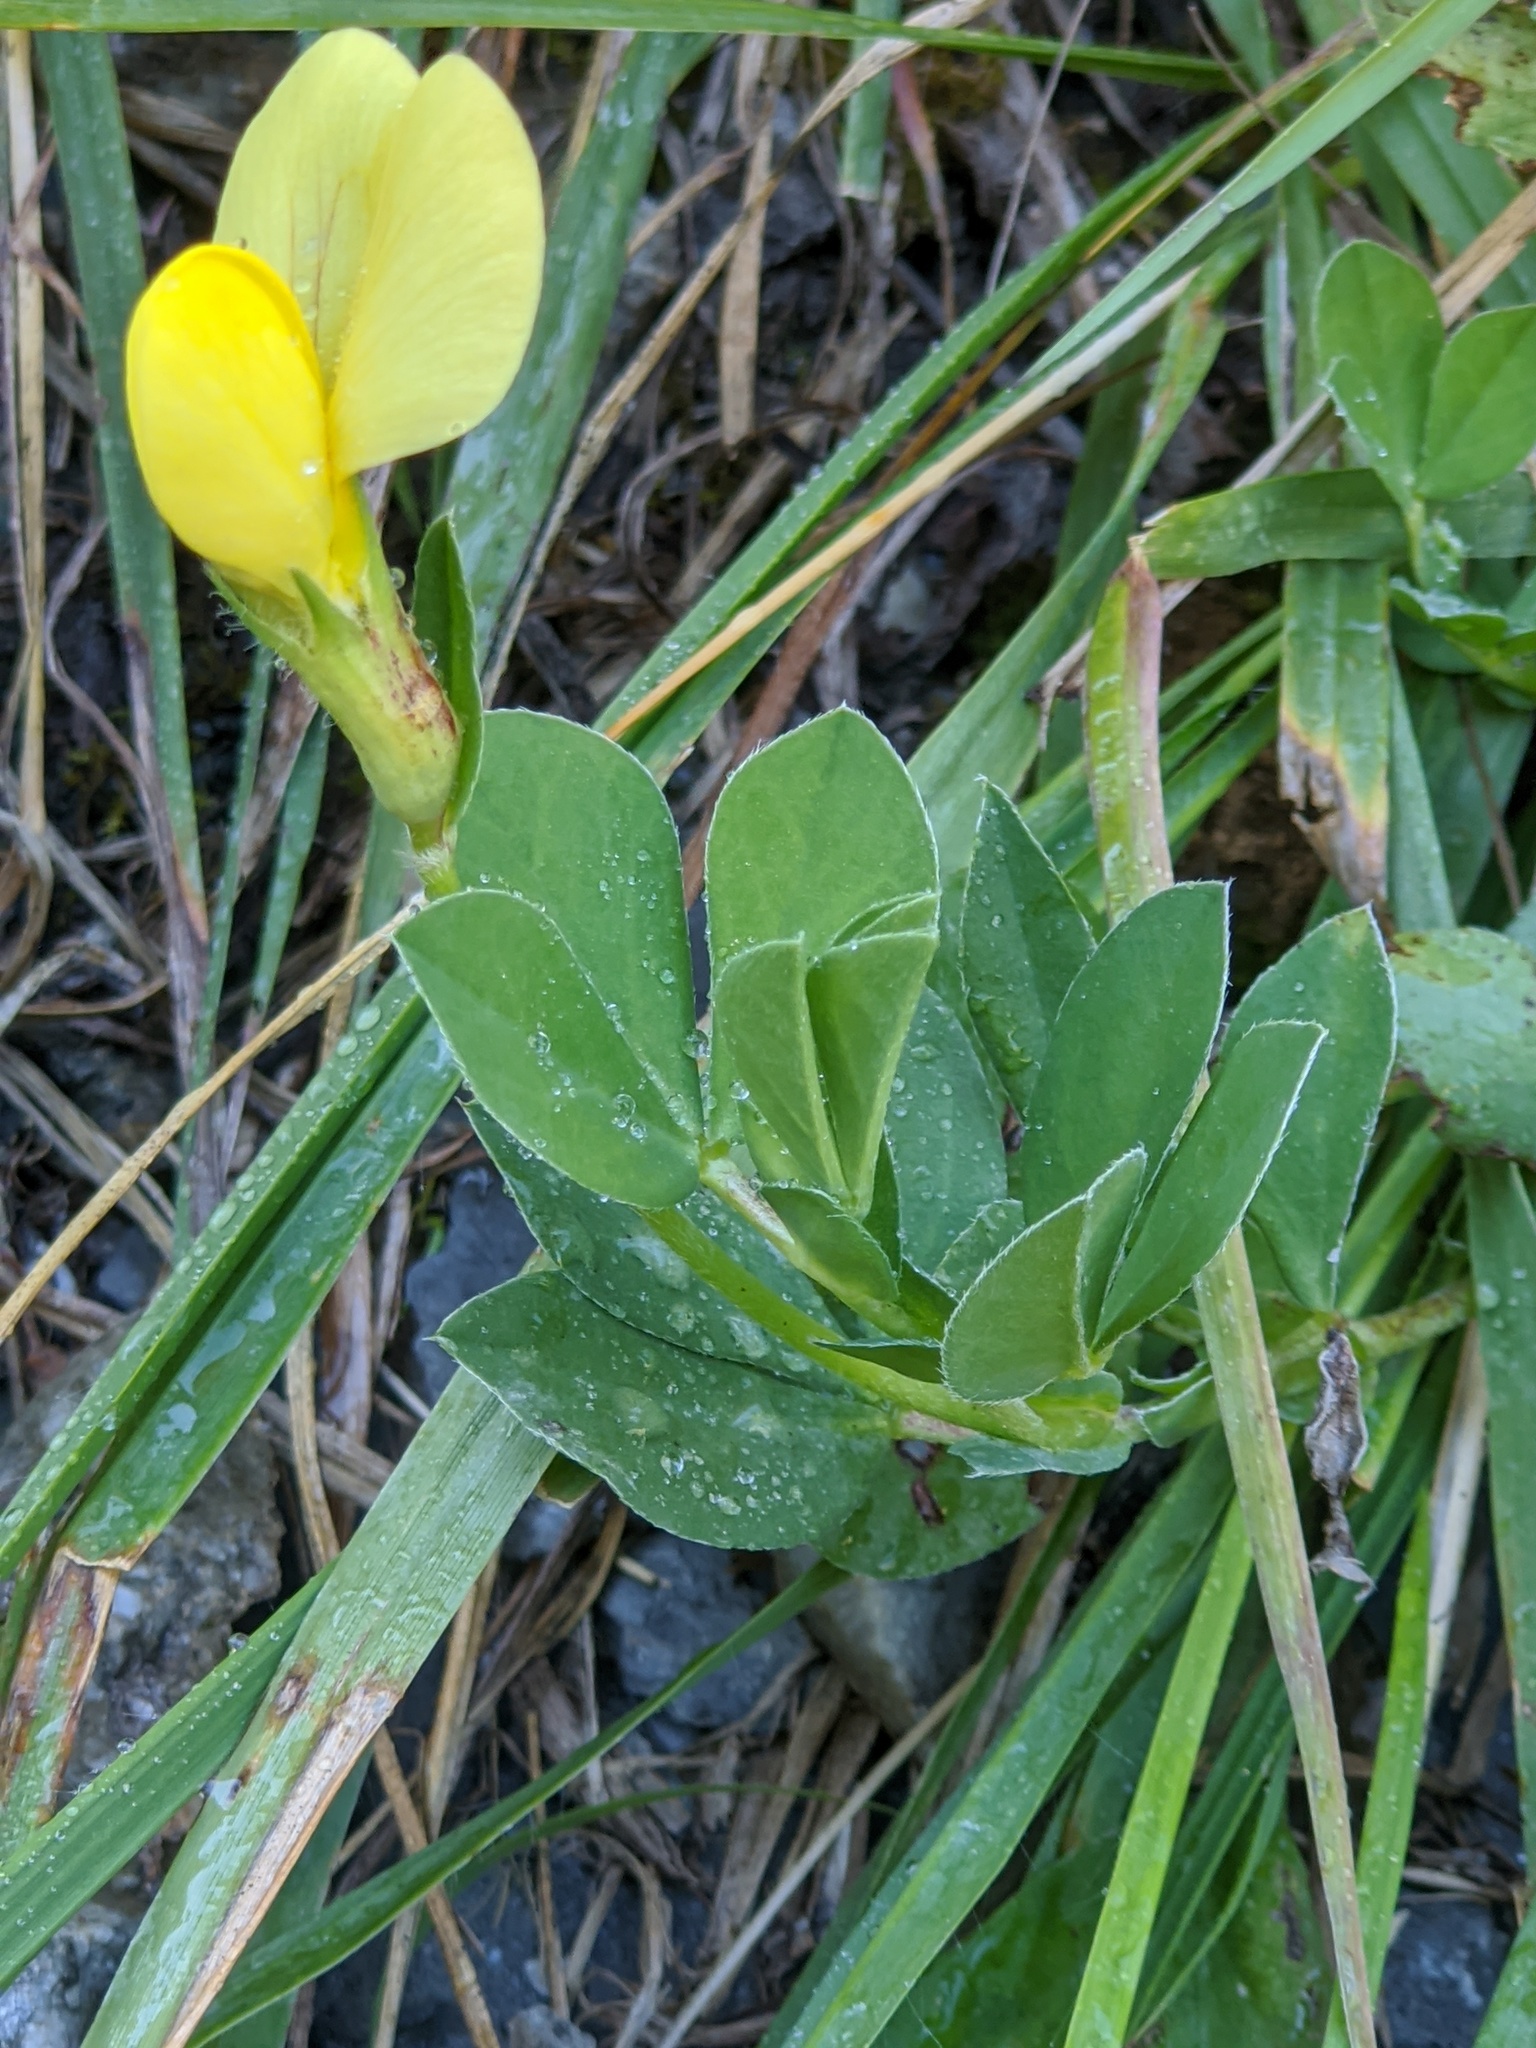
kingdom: Plantae
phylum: Tracheophyta
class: Magnoliopsida
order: Fabales
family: Fabaceae
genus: Lotus
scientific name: Lotus maritimus
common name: Dragon's-teeth
